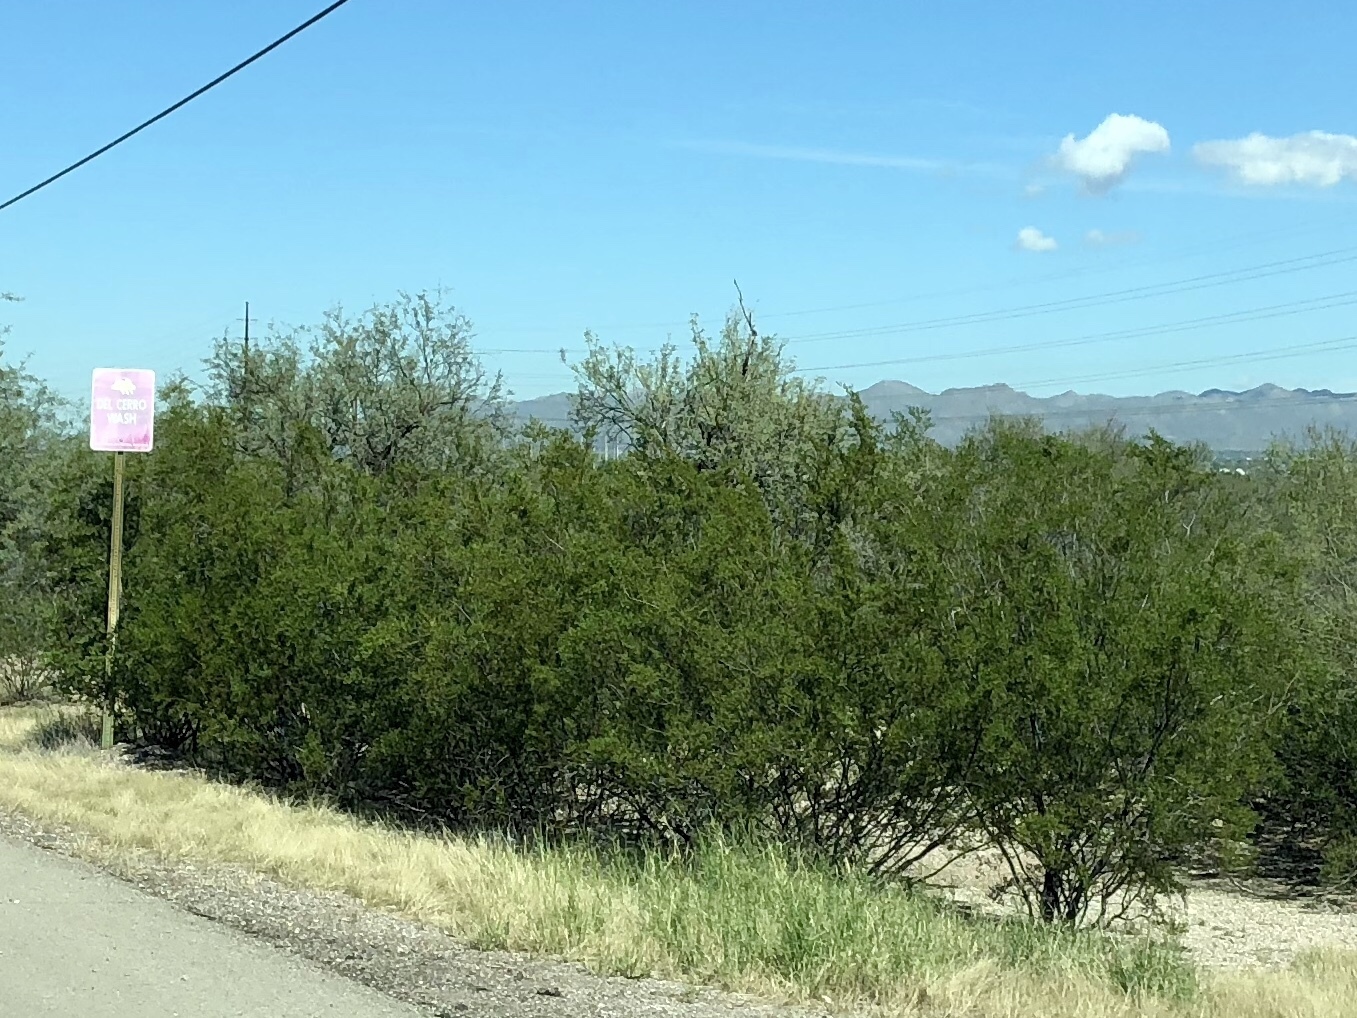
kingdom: Plantae
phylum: Tracheophyta
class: Magnoliopsida
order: Zygophyllales
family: Zygophyllaceae
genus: Larrea
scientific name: Larrea tridentata
